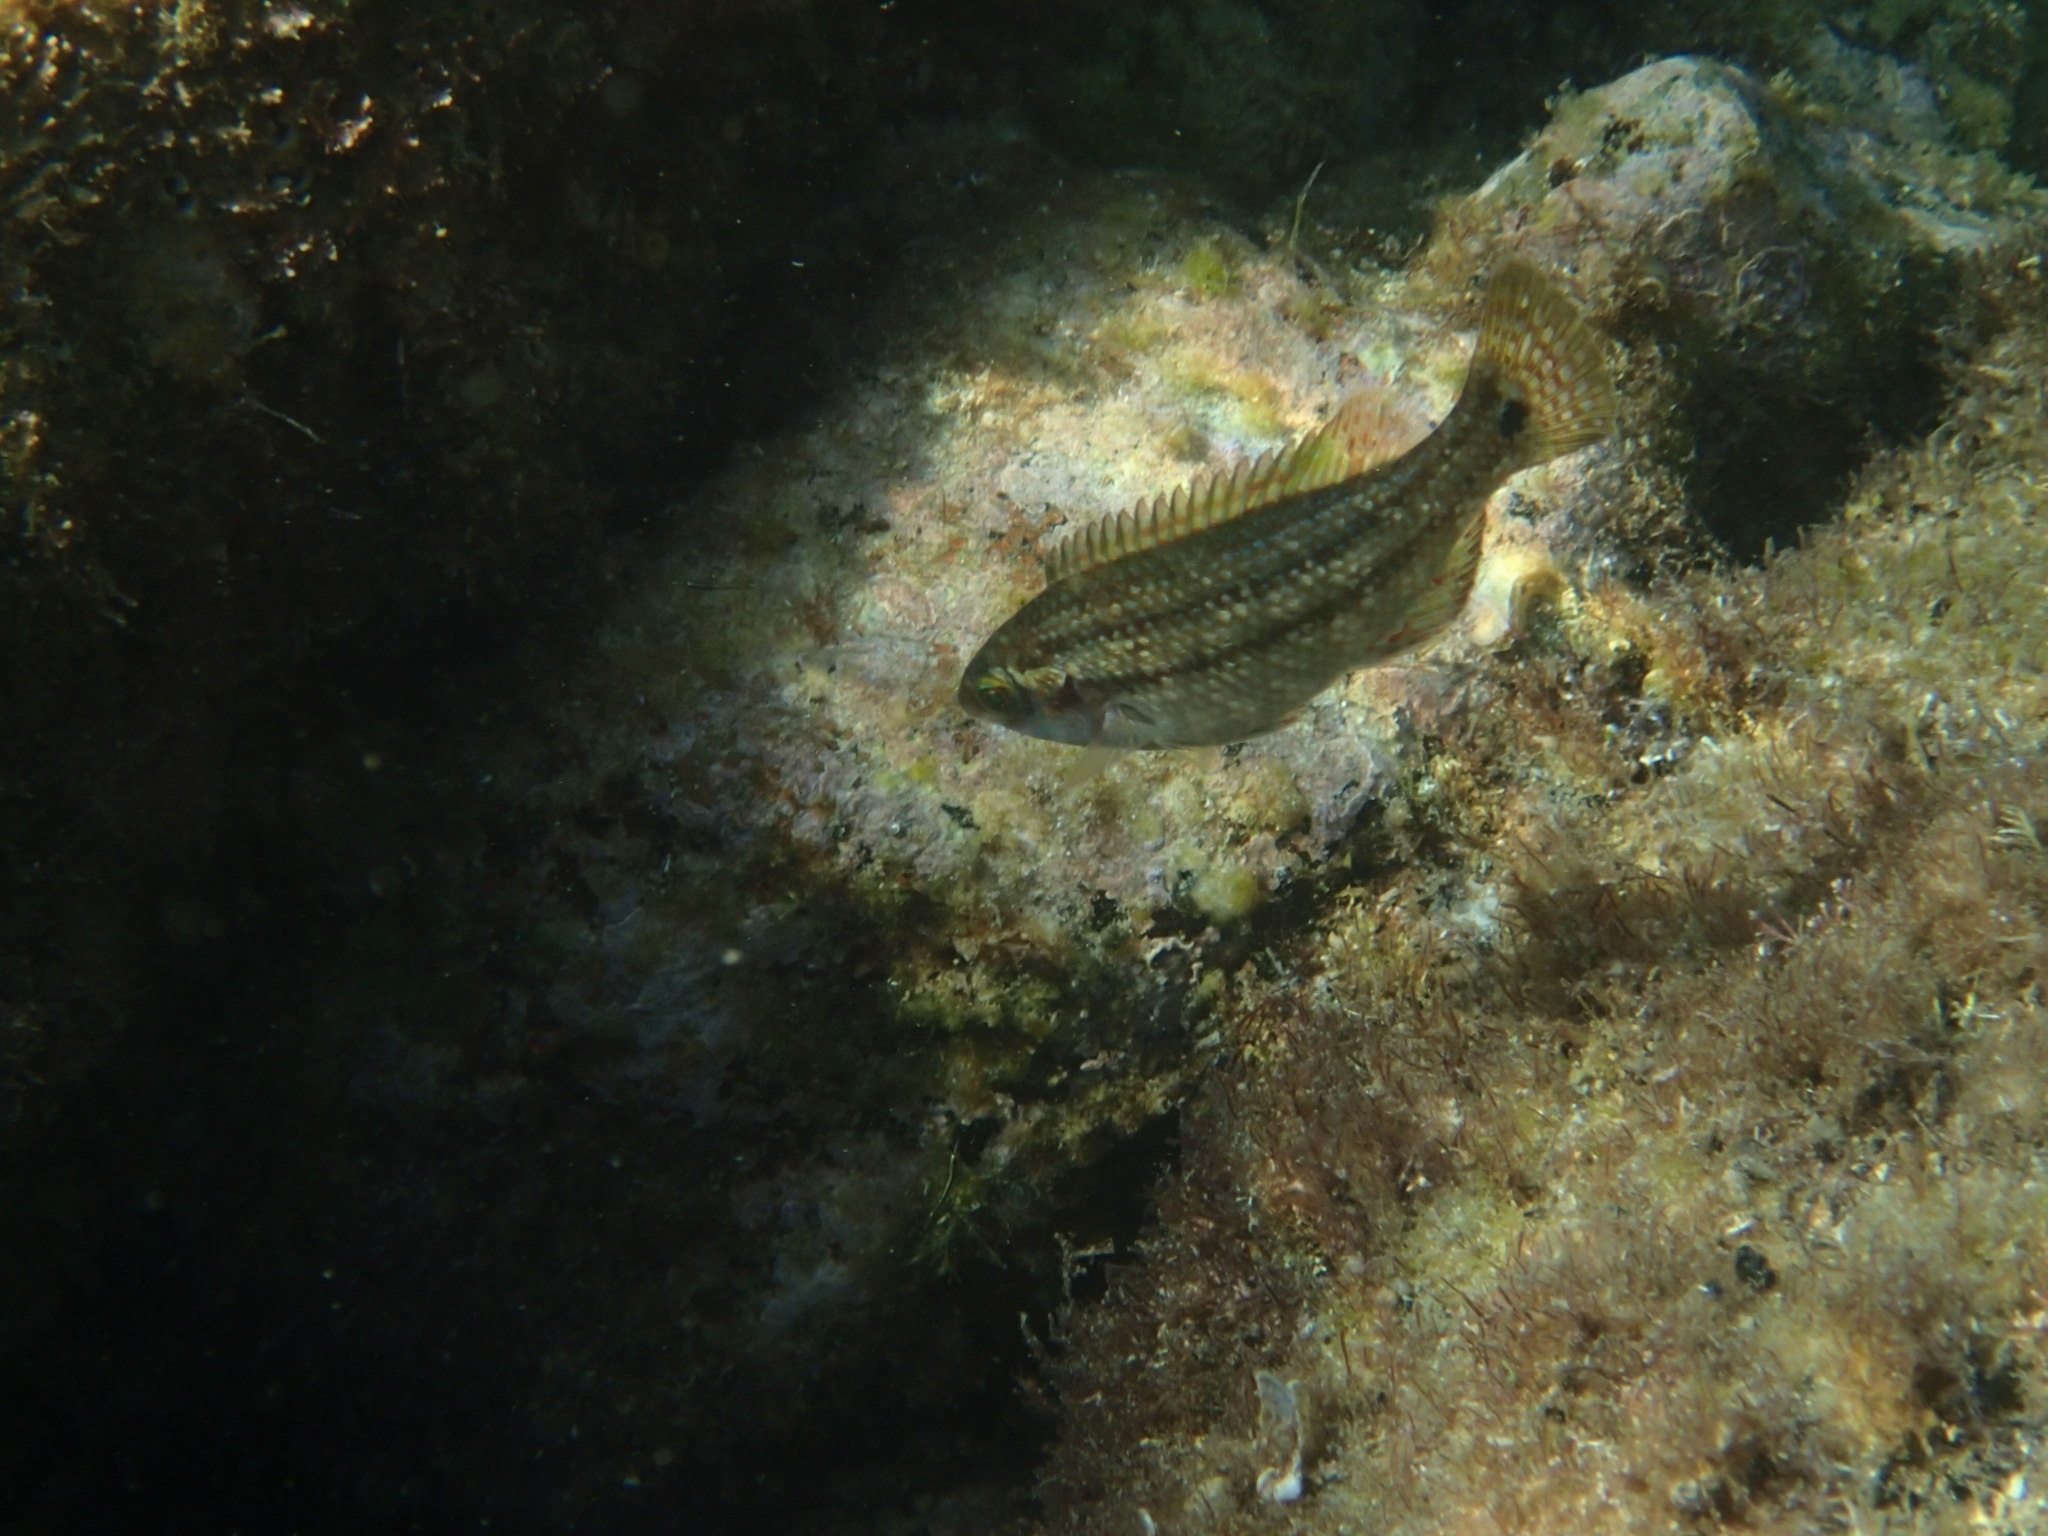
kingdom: Animalia
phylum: Chordata
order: Perciformes
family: Labridae
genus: Symphodus
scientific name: Symphodus melops
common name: Corkwing
